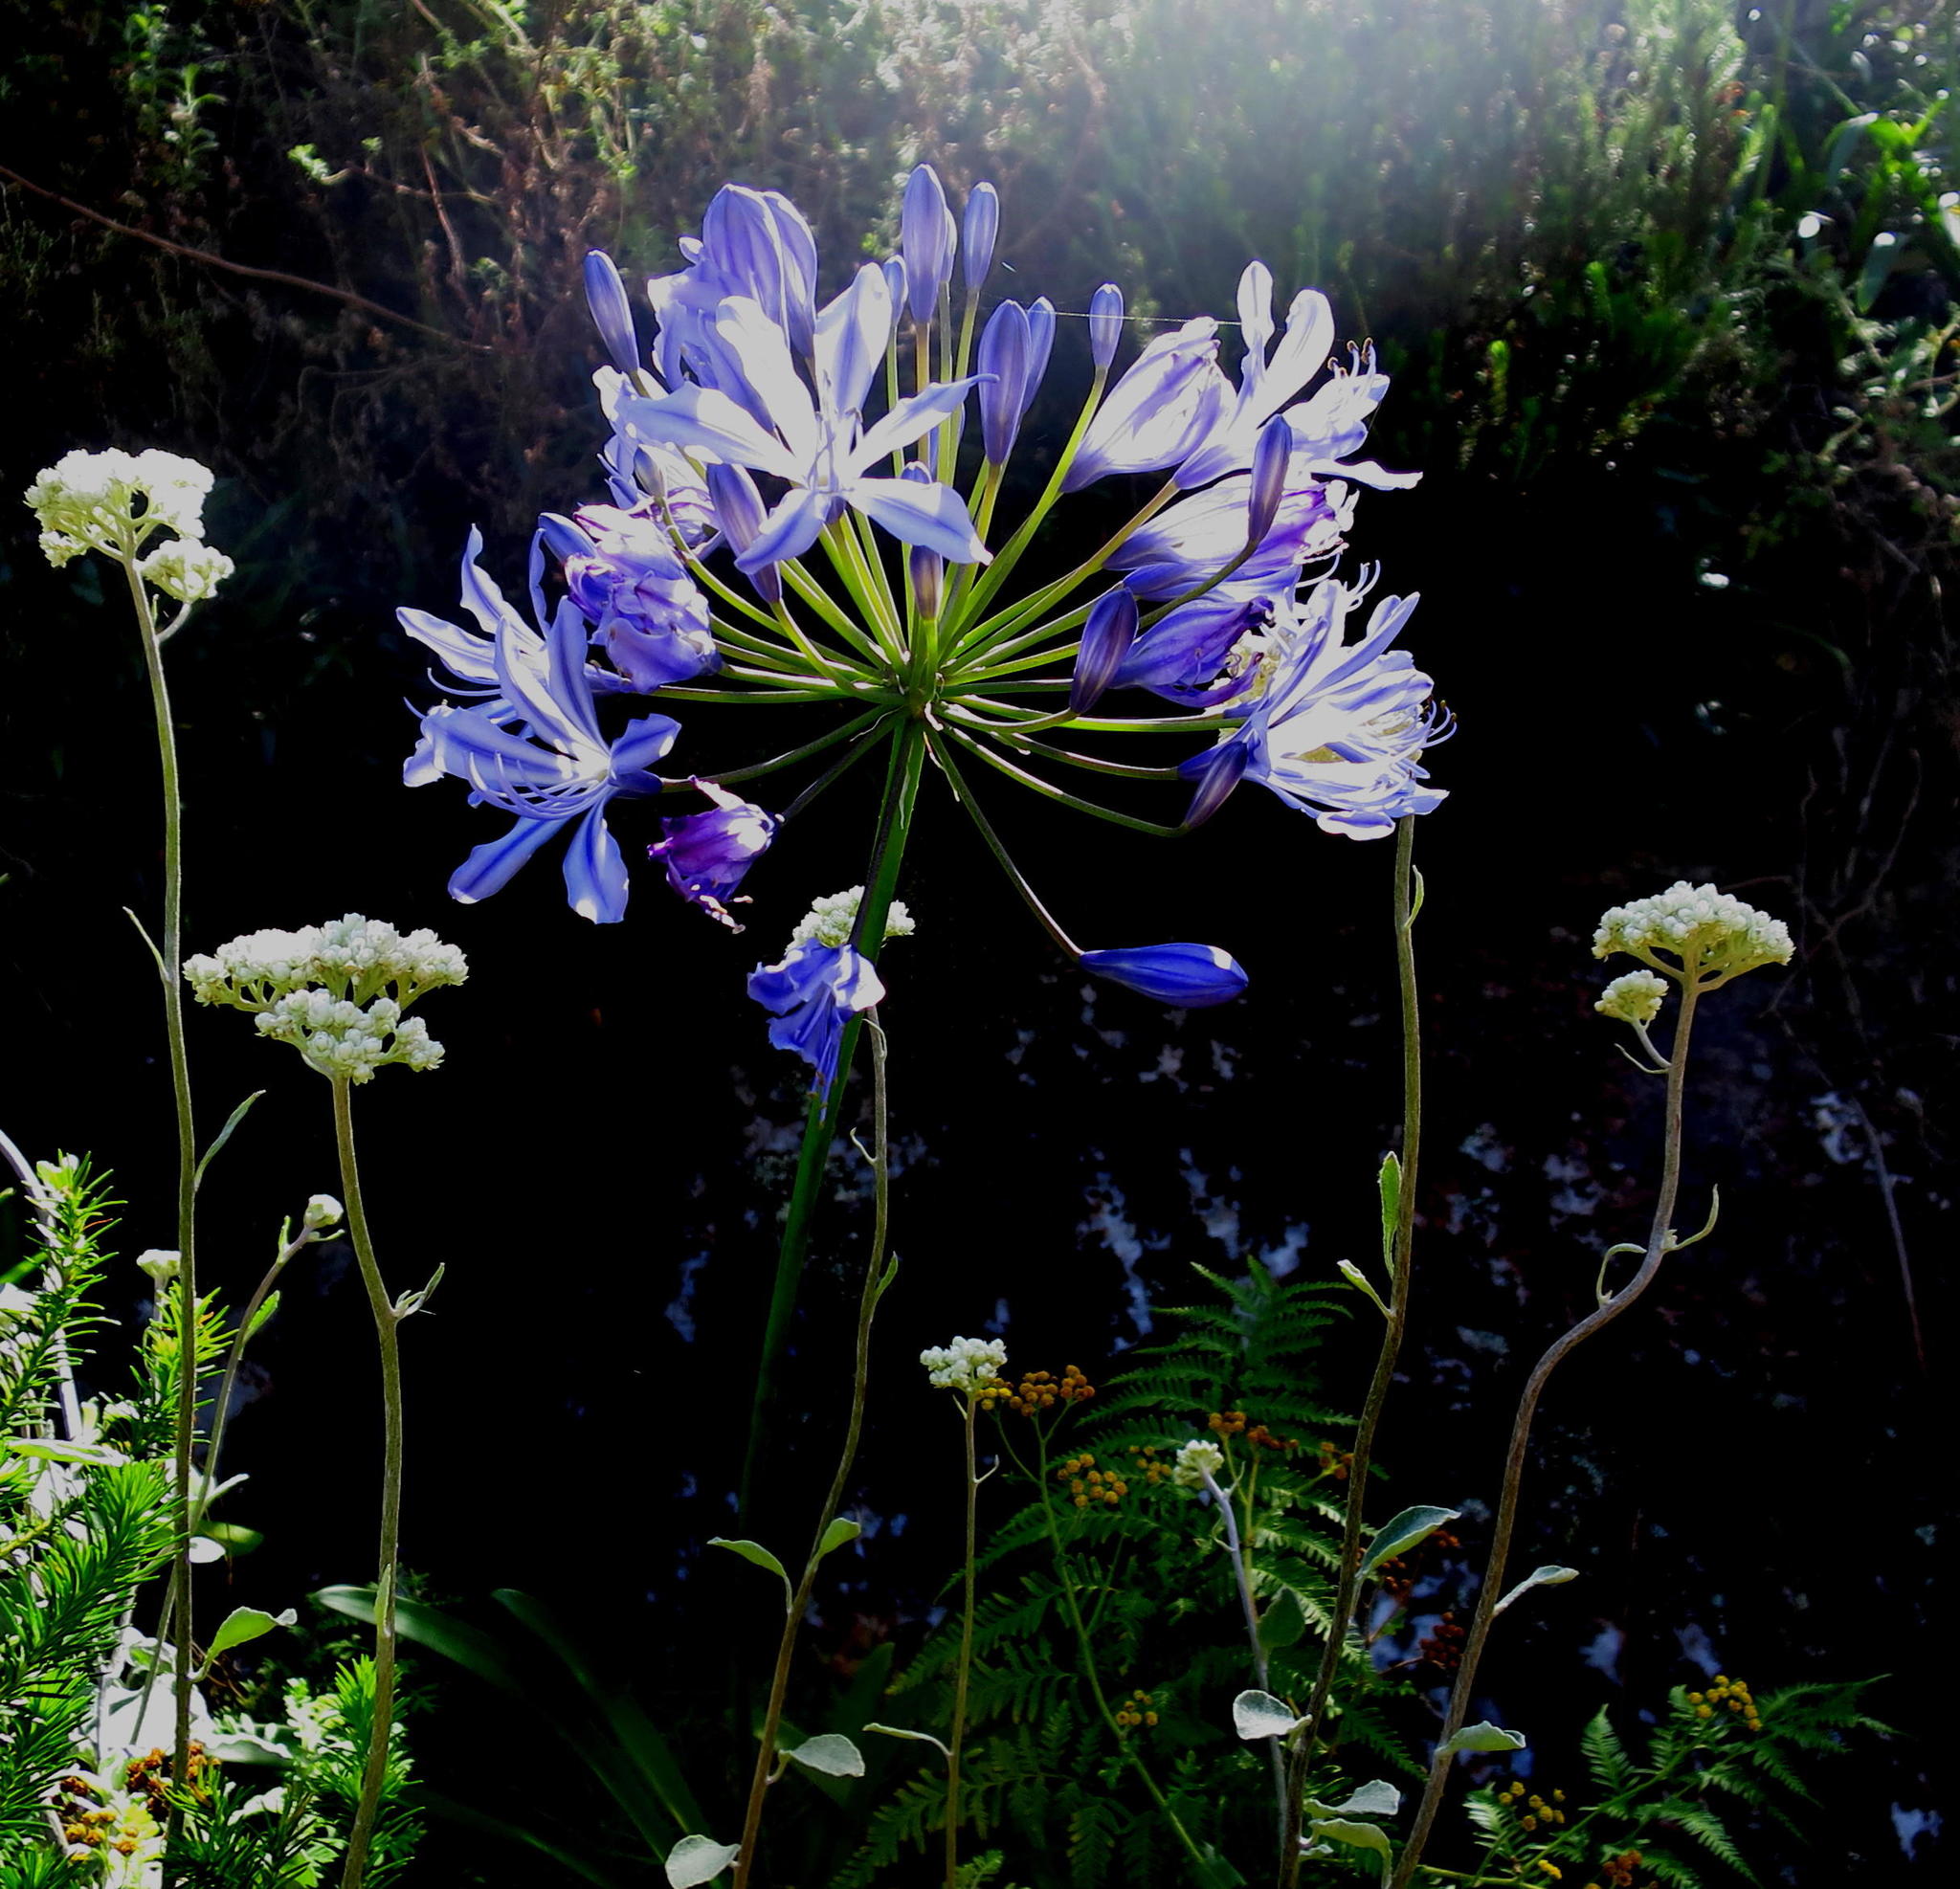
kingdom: Plantae
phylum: Tracheophyta
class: Liliopsida
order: Asparagales
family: Amaryllidaceae
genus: Agapanthus
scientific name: Agapanthus praecox
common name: African-lily
